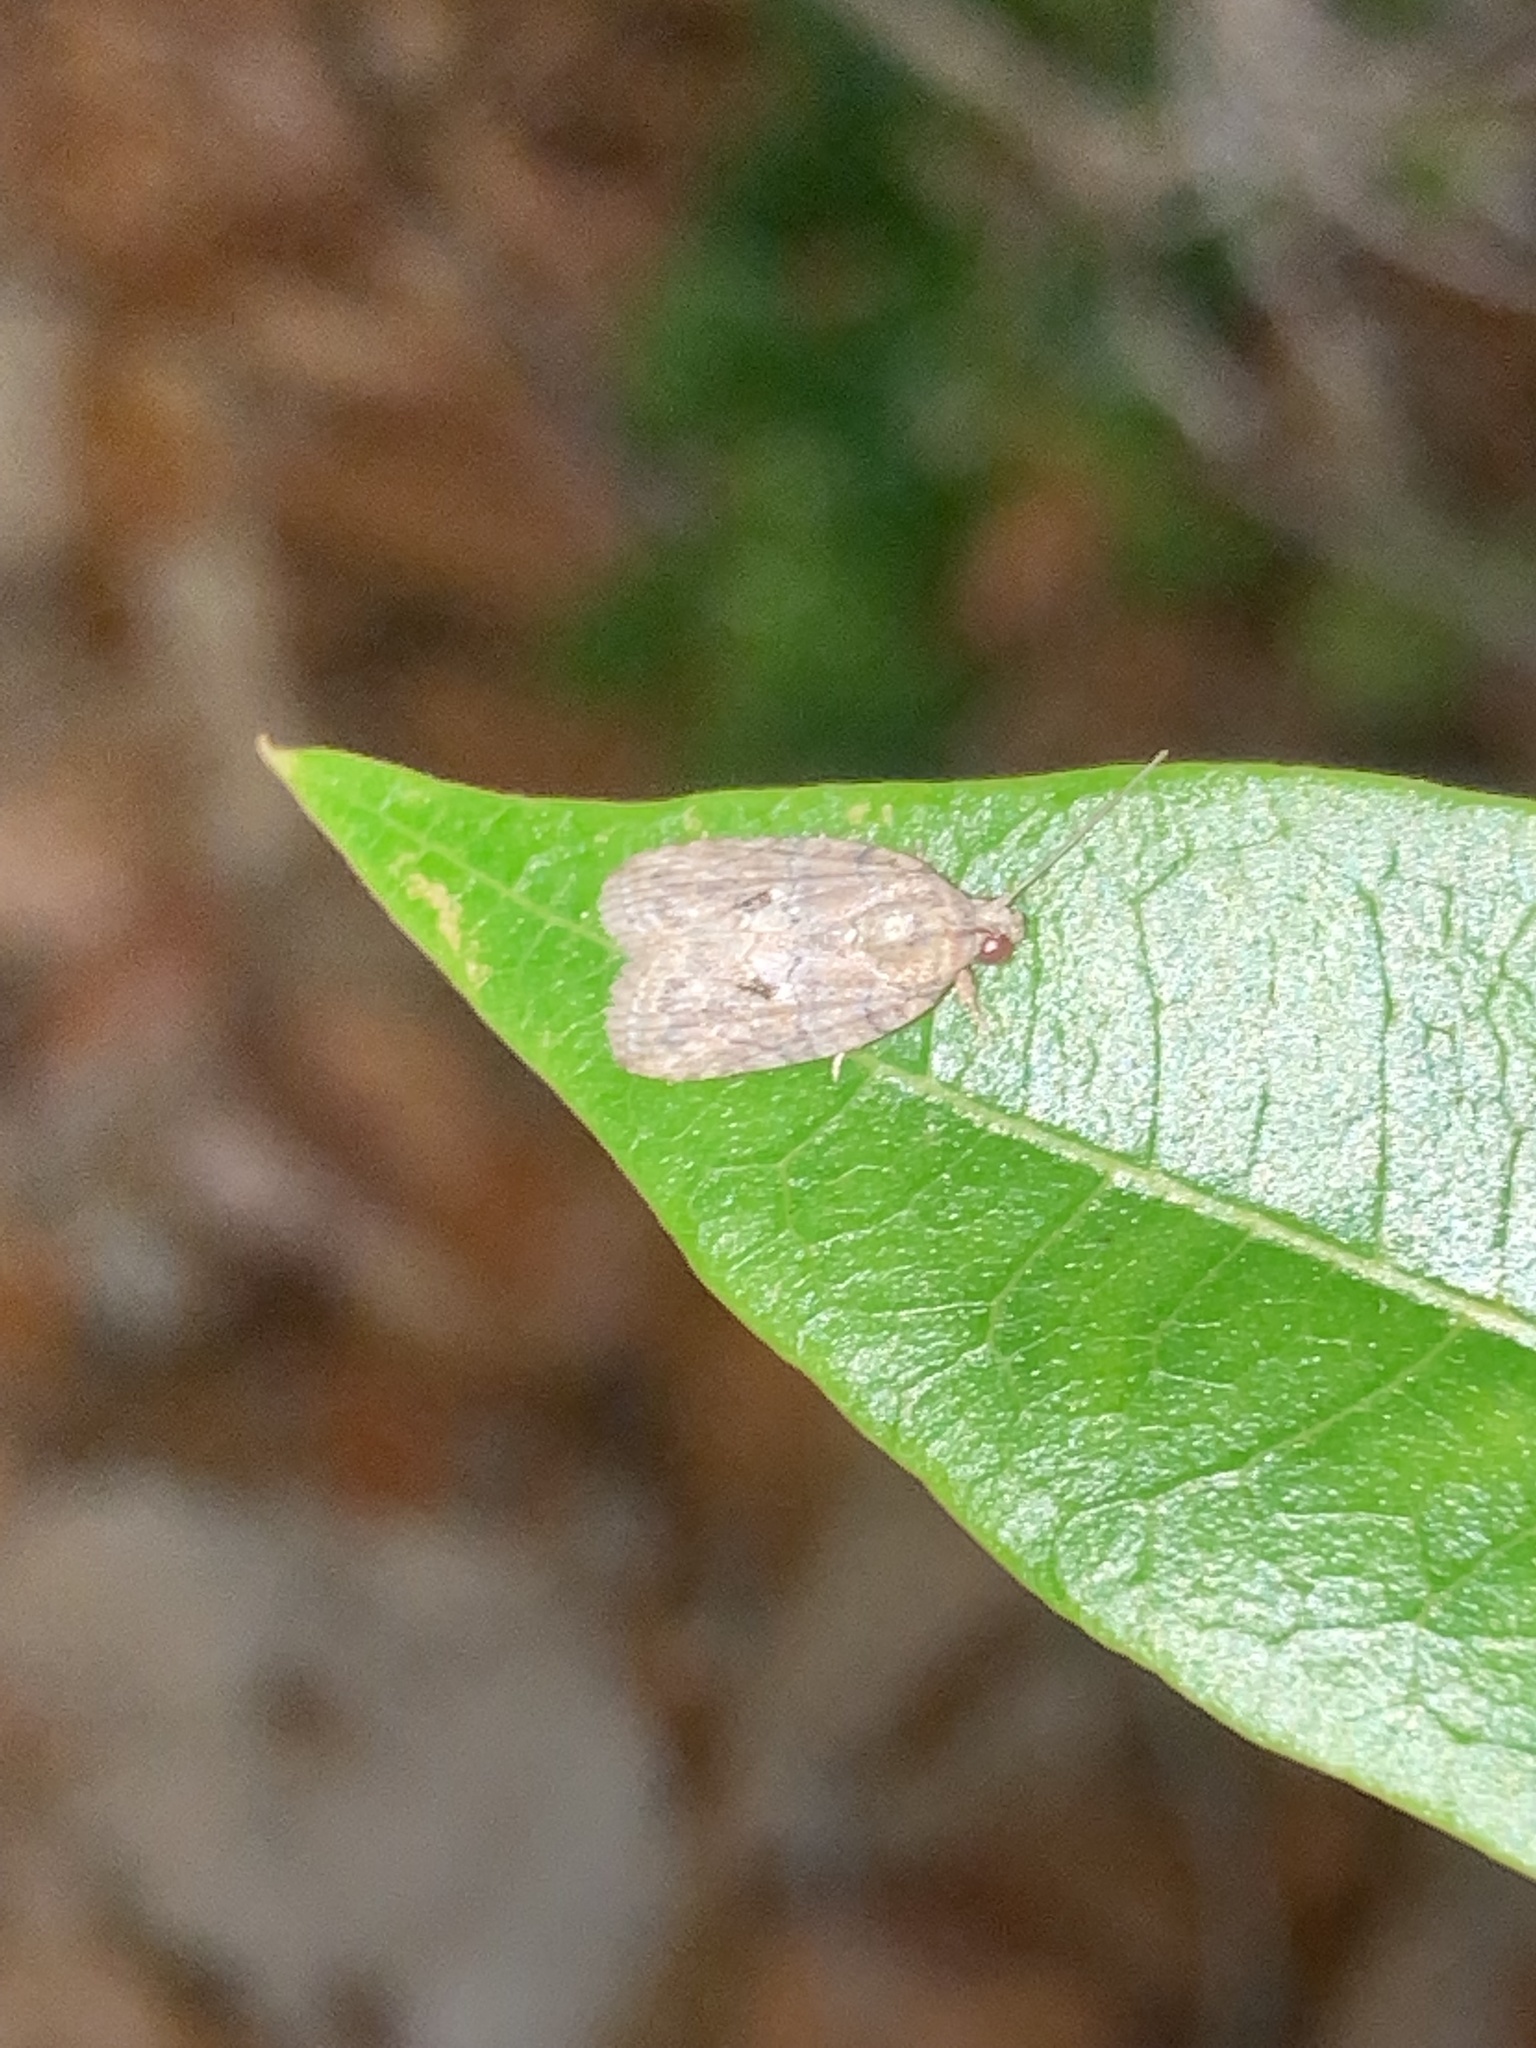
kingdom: Animalia
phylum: Arthropoda
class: Insecta
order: Lepidoptera
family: Nolidae
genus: Garella
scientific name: Garella nilotica
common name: Black-olive caterpillar moth
